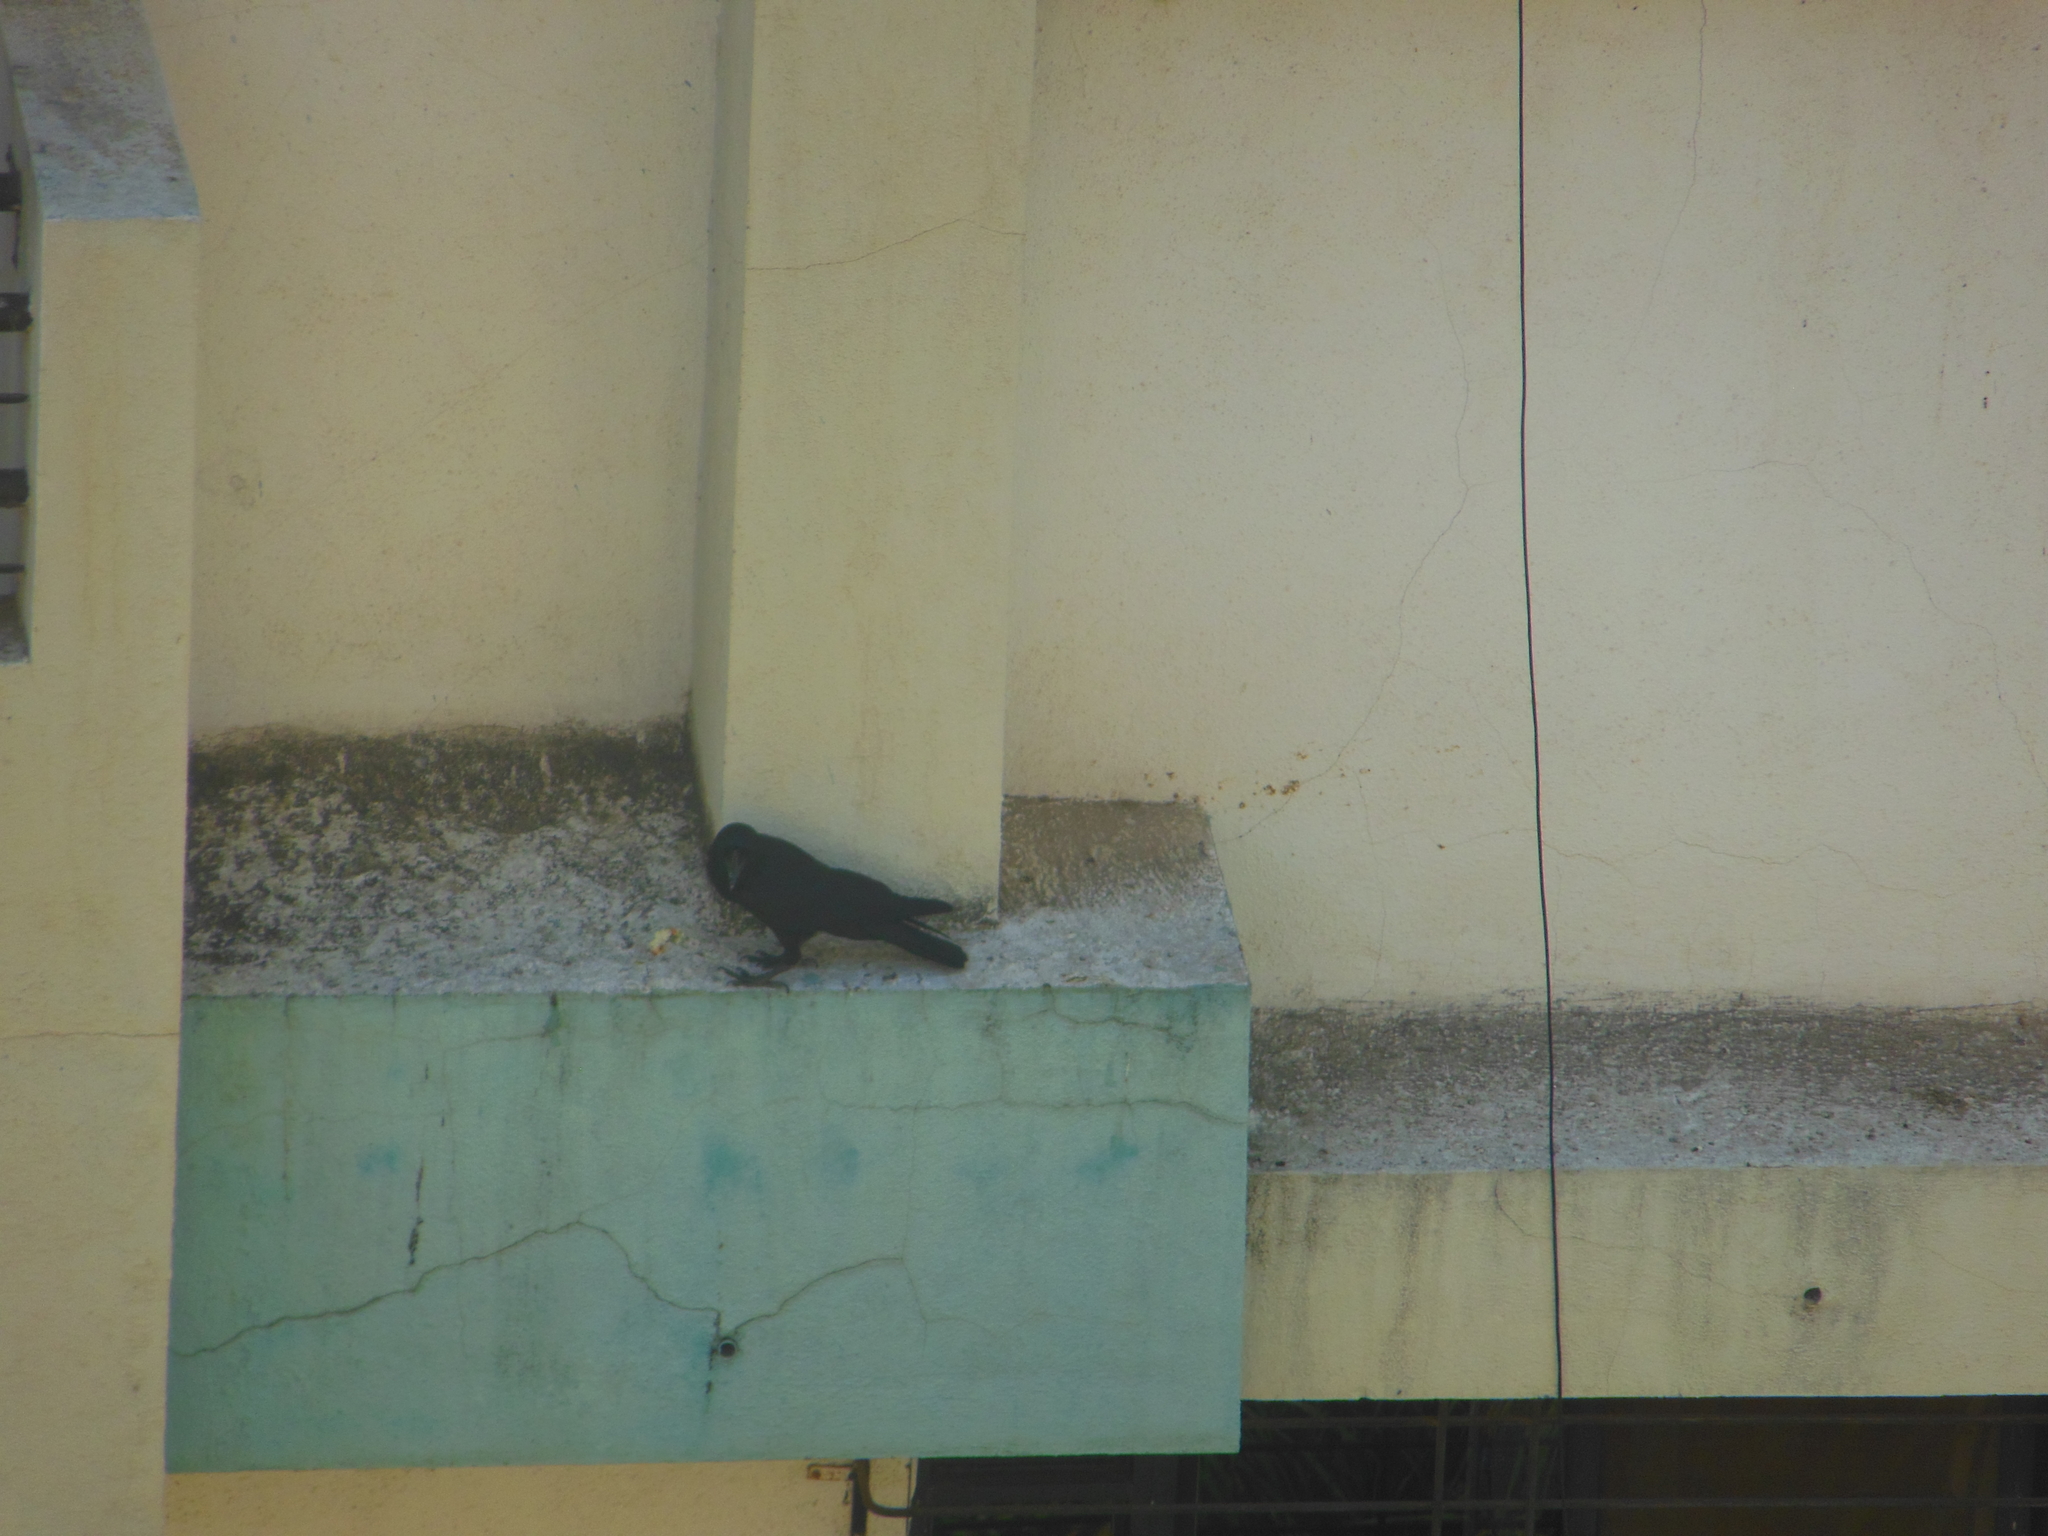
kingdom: Animalia
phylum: Chordata
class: Aves
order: Passeriformes
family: Corvidae
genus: Corvus
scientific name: Corvus macrorhynchos
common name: Large-billed crow
